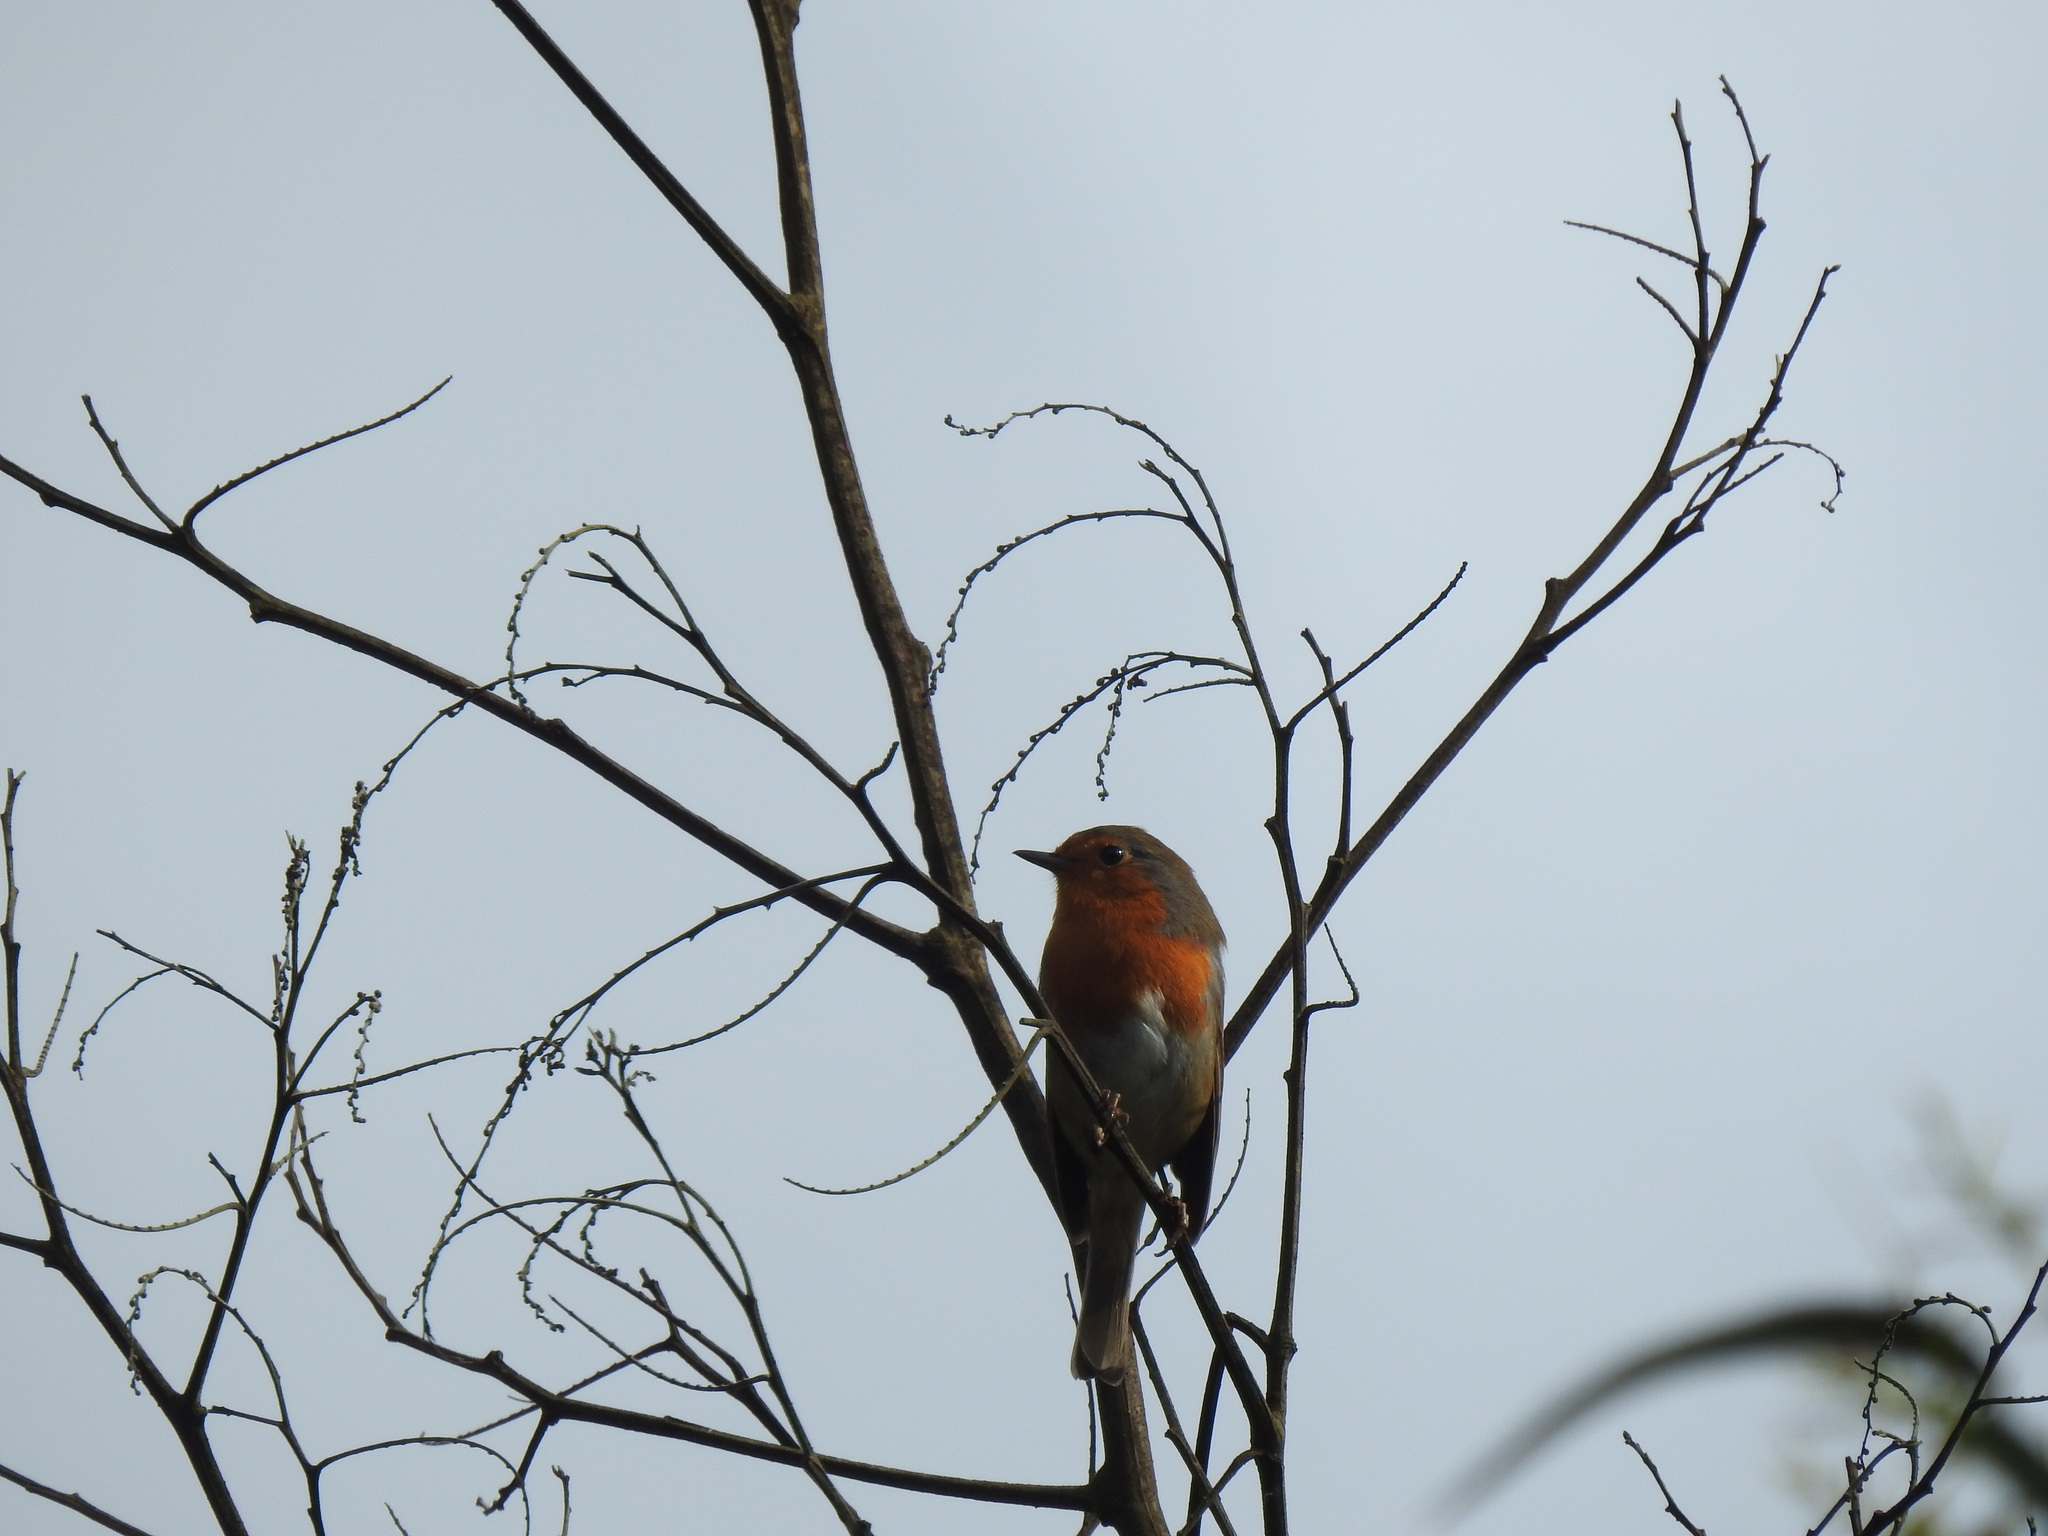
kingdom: Animalia
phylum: Chordata
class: Aves
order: Passeriformes
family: Muscicapidae
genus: Erithacus
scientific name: Erithacus rubecula
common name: European robin
